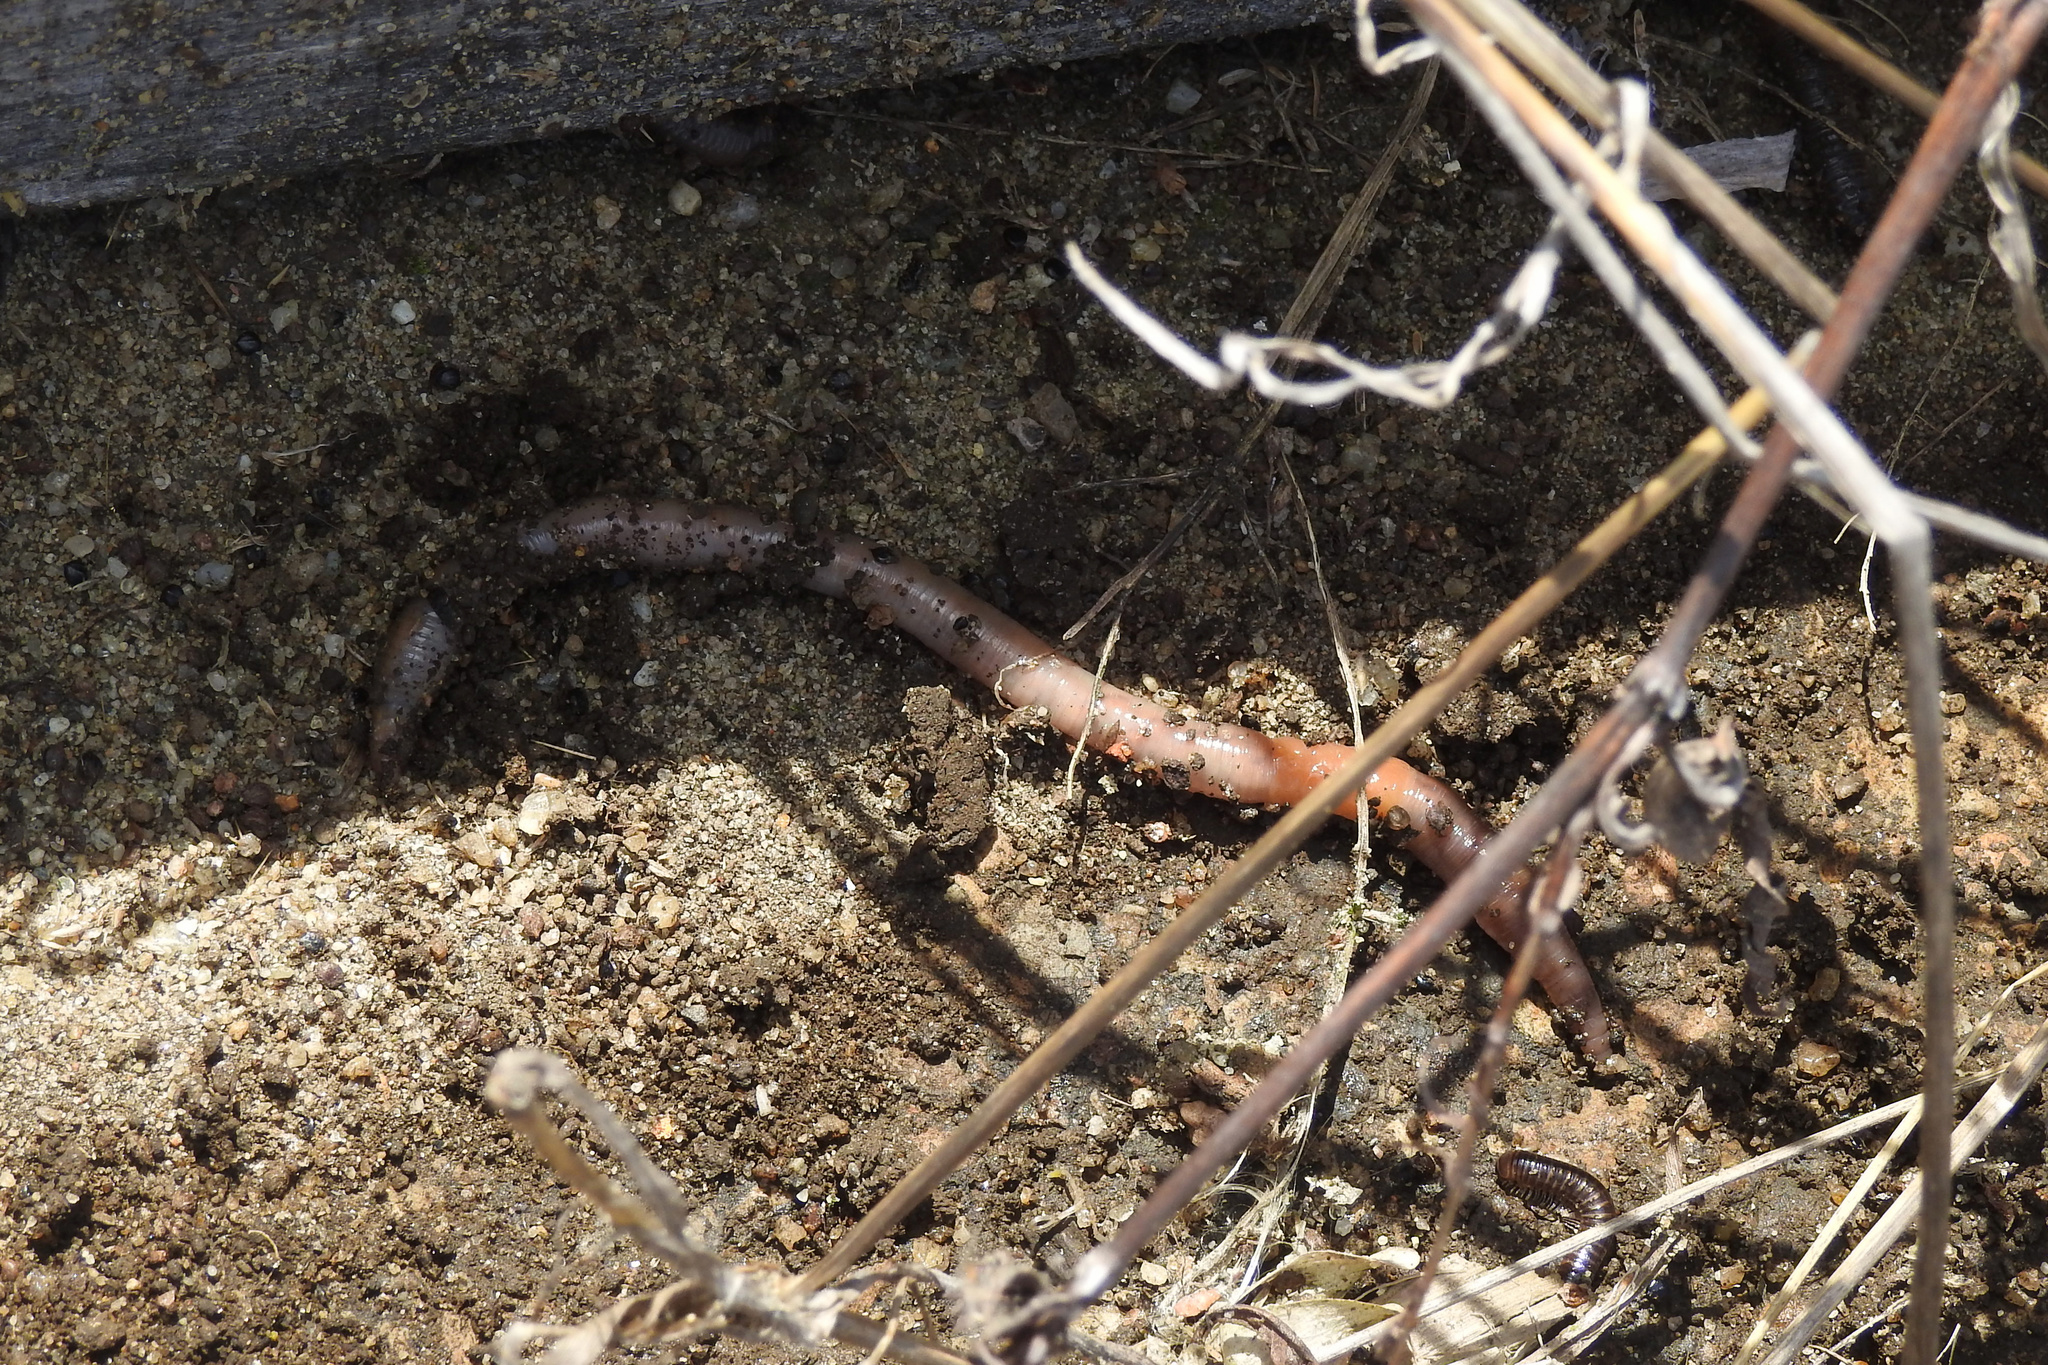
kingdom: Animalia
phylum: Annelida
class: Clitellata
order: Crassiclitellata
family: Lumbricidae
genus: Lumbricus
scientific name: Lumbricus terrestris
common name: Common earthworm
